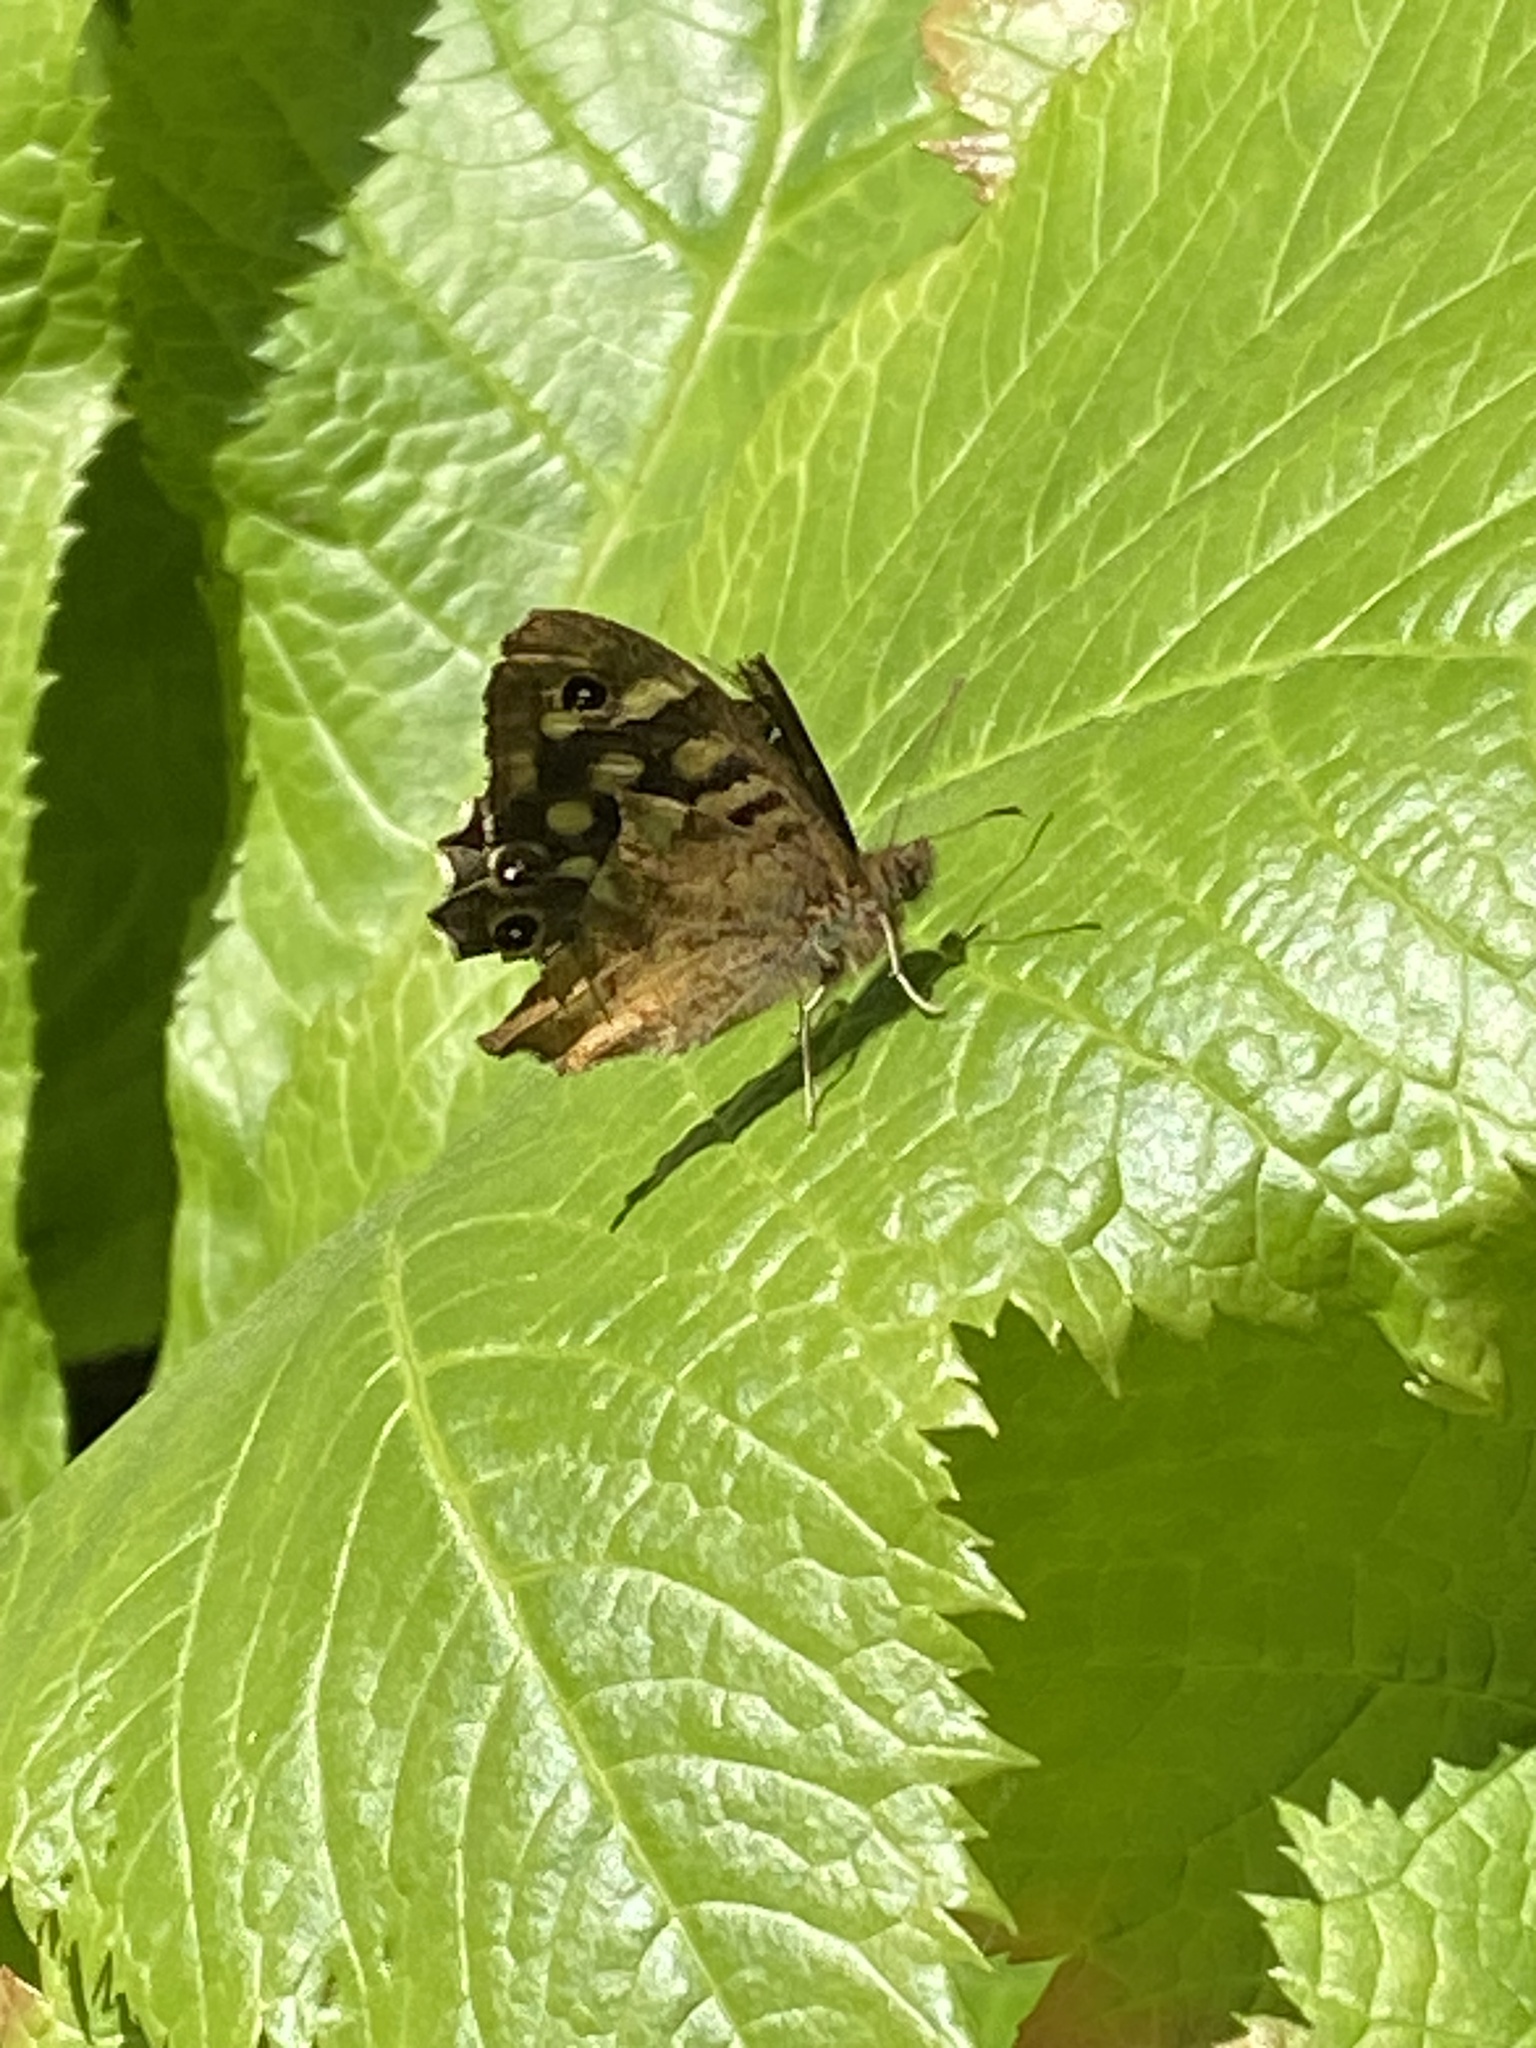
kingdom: Animalia
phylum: Arthropoda
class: Insecta
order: Lepidoptera
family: Nymphalidae
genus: Pararge
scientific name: Pararge aegeria
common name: Speckled wood
